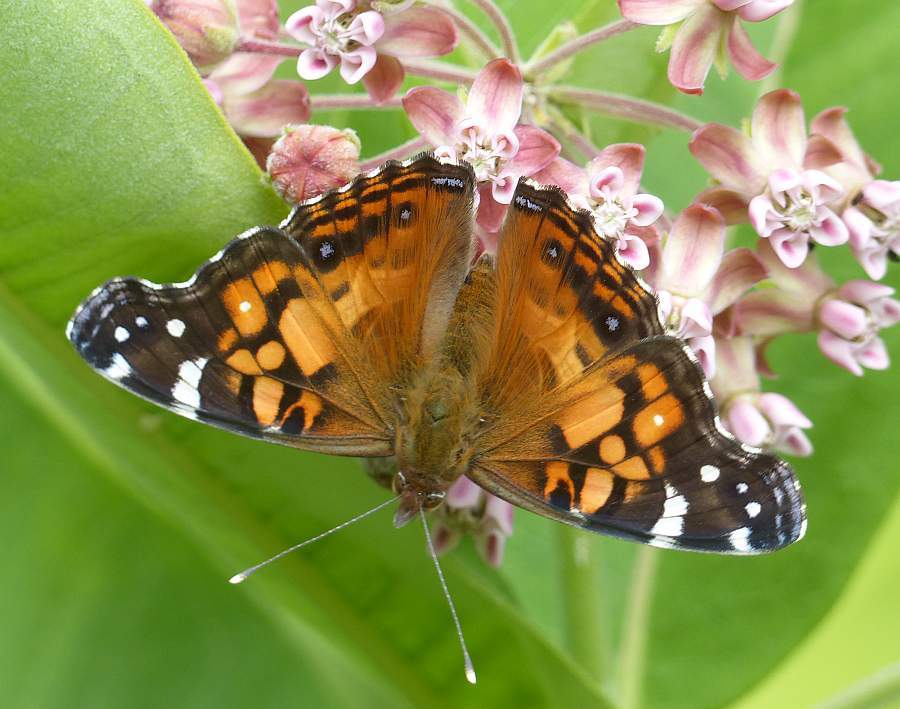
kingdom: Animalia
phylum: Arthropoda
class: Insecta
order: Lepidoptera
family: Nymphalidae
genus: Vanessa
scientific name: Vanessa virginiensis
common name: American lady
